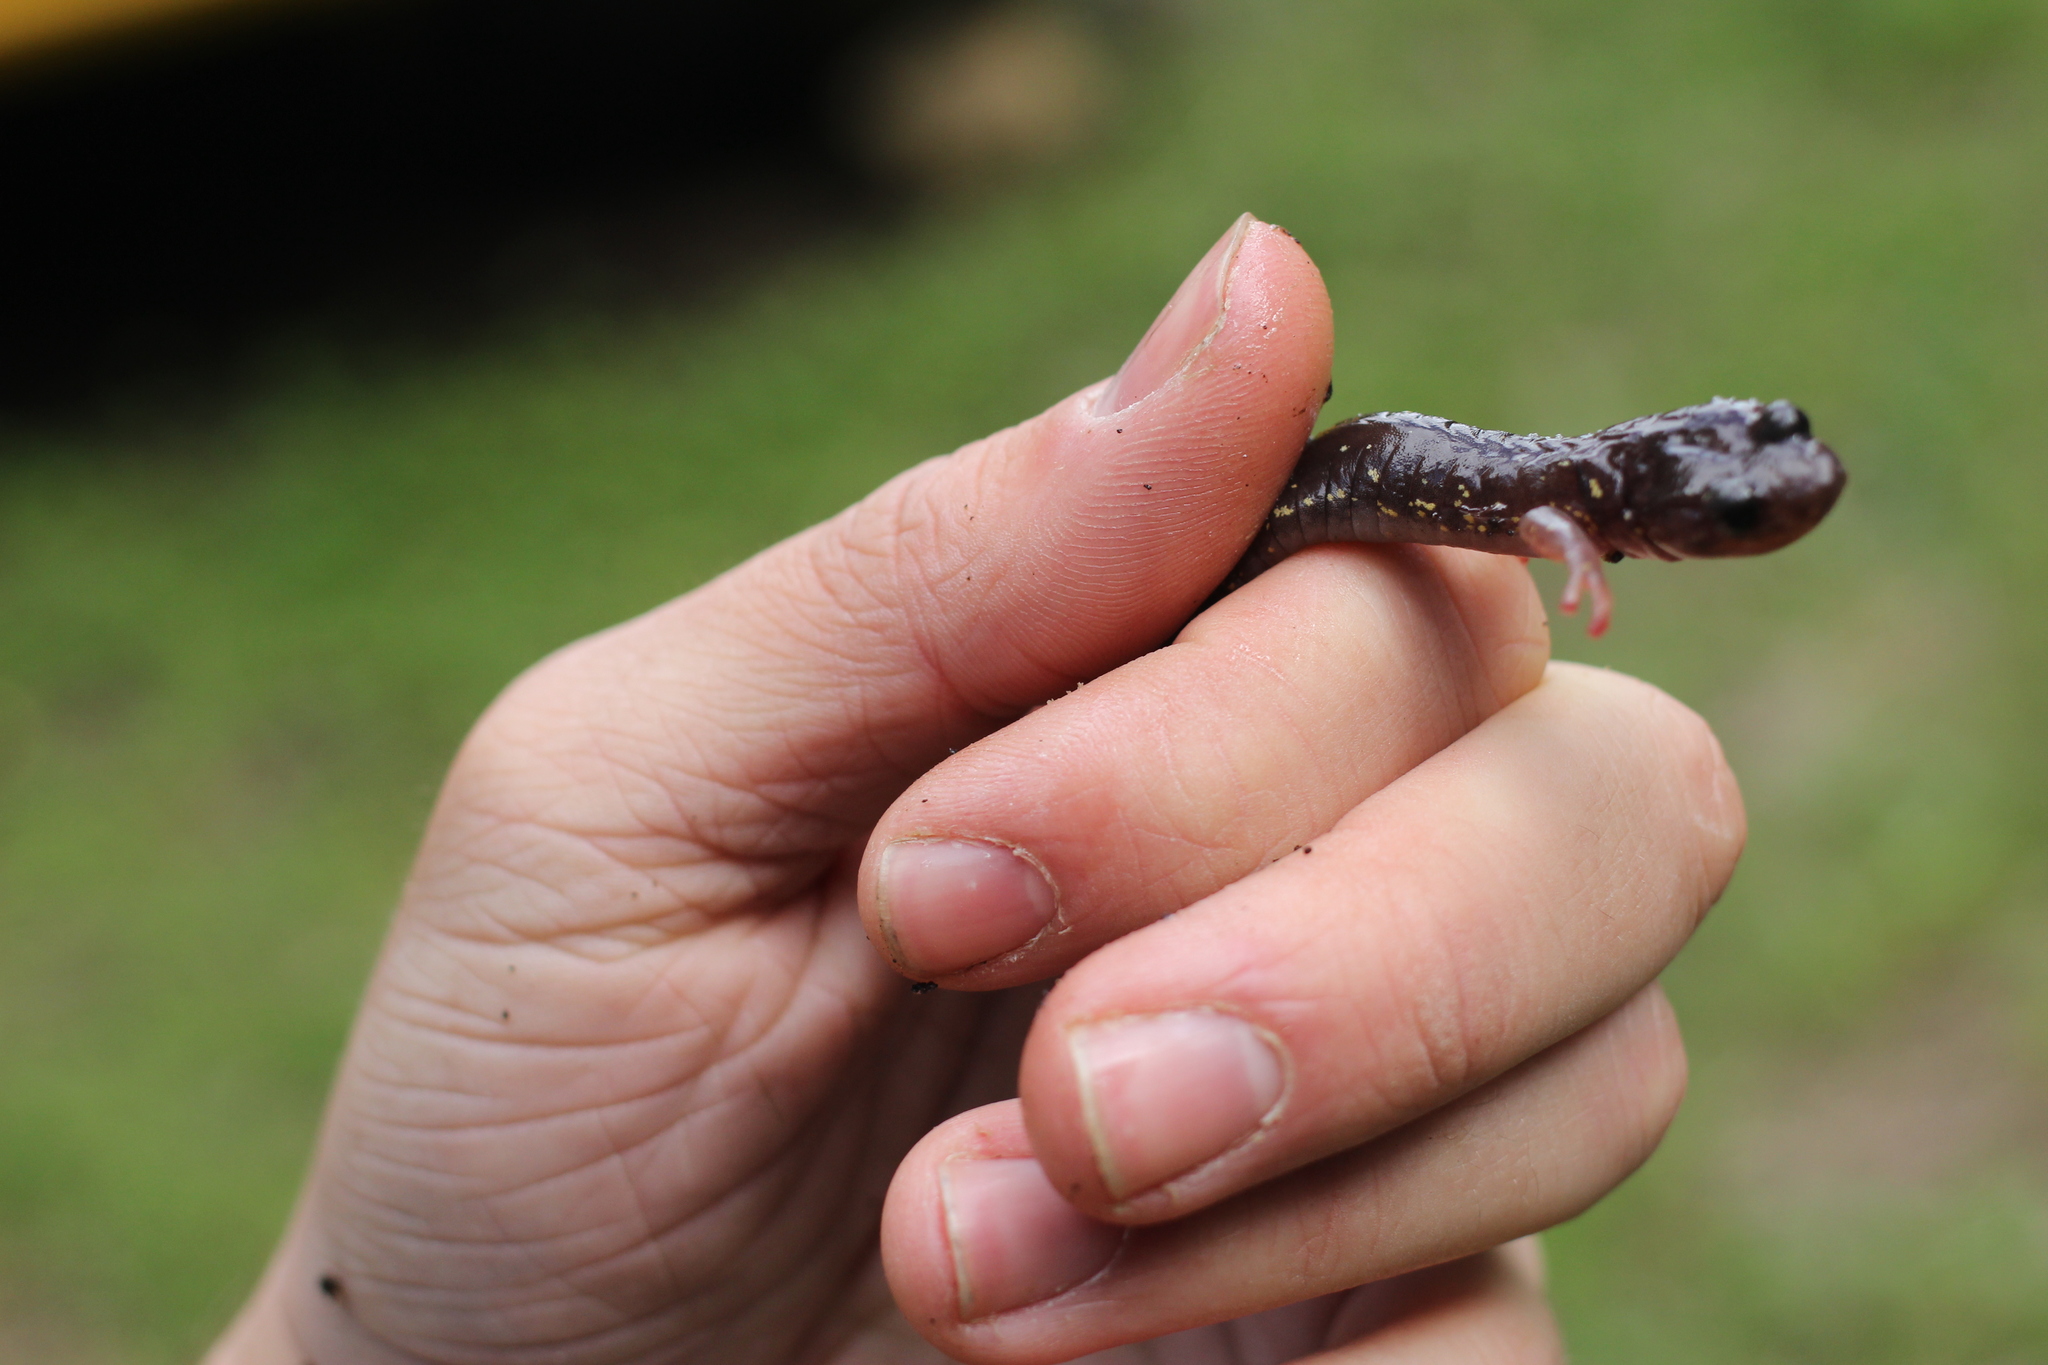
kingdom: Animalia
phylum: Chordata
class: Amphibia
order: Caudata
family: Plethodontidae
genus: Aneides
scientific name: Aneides lugubris
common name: Arboreal salamander
